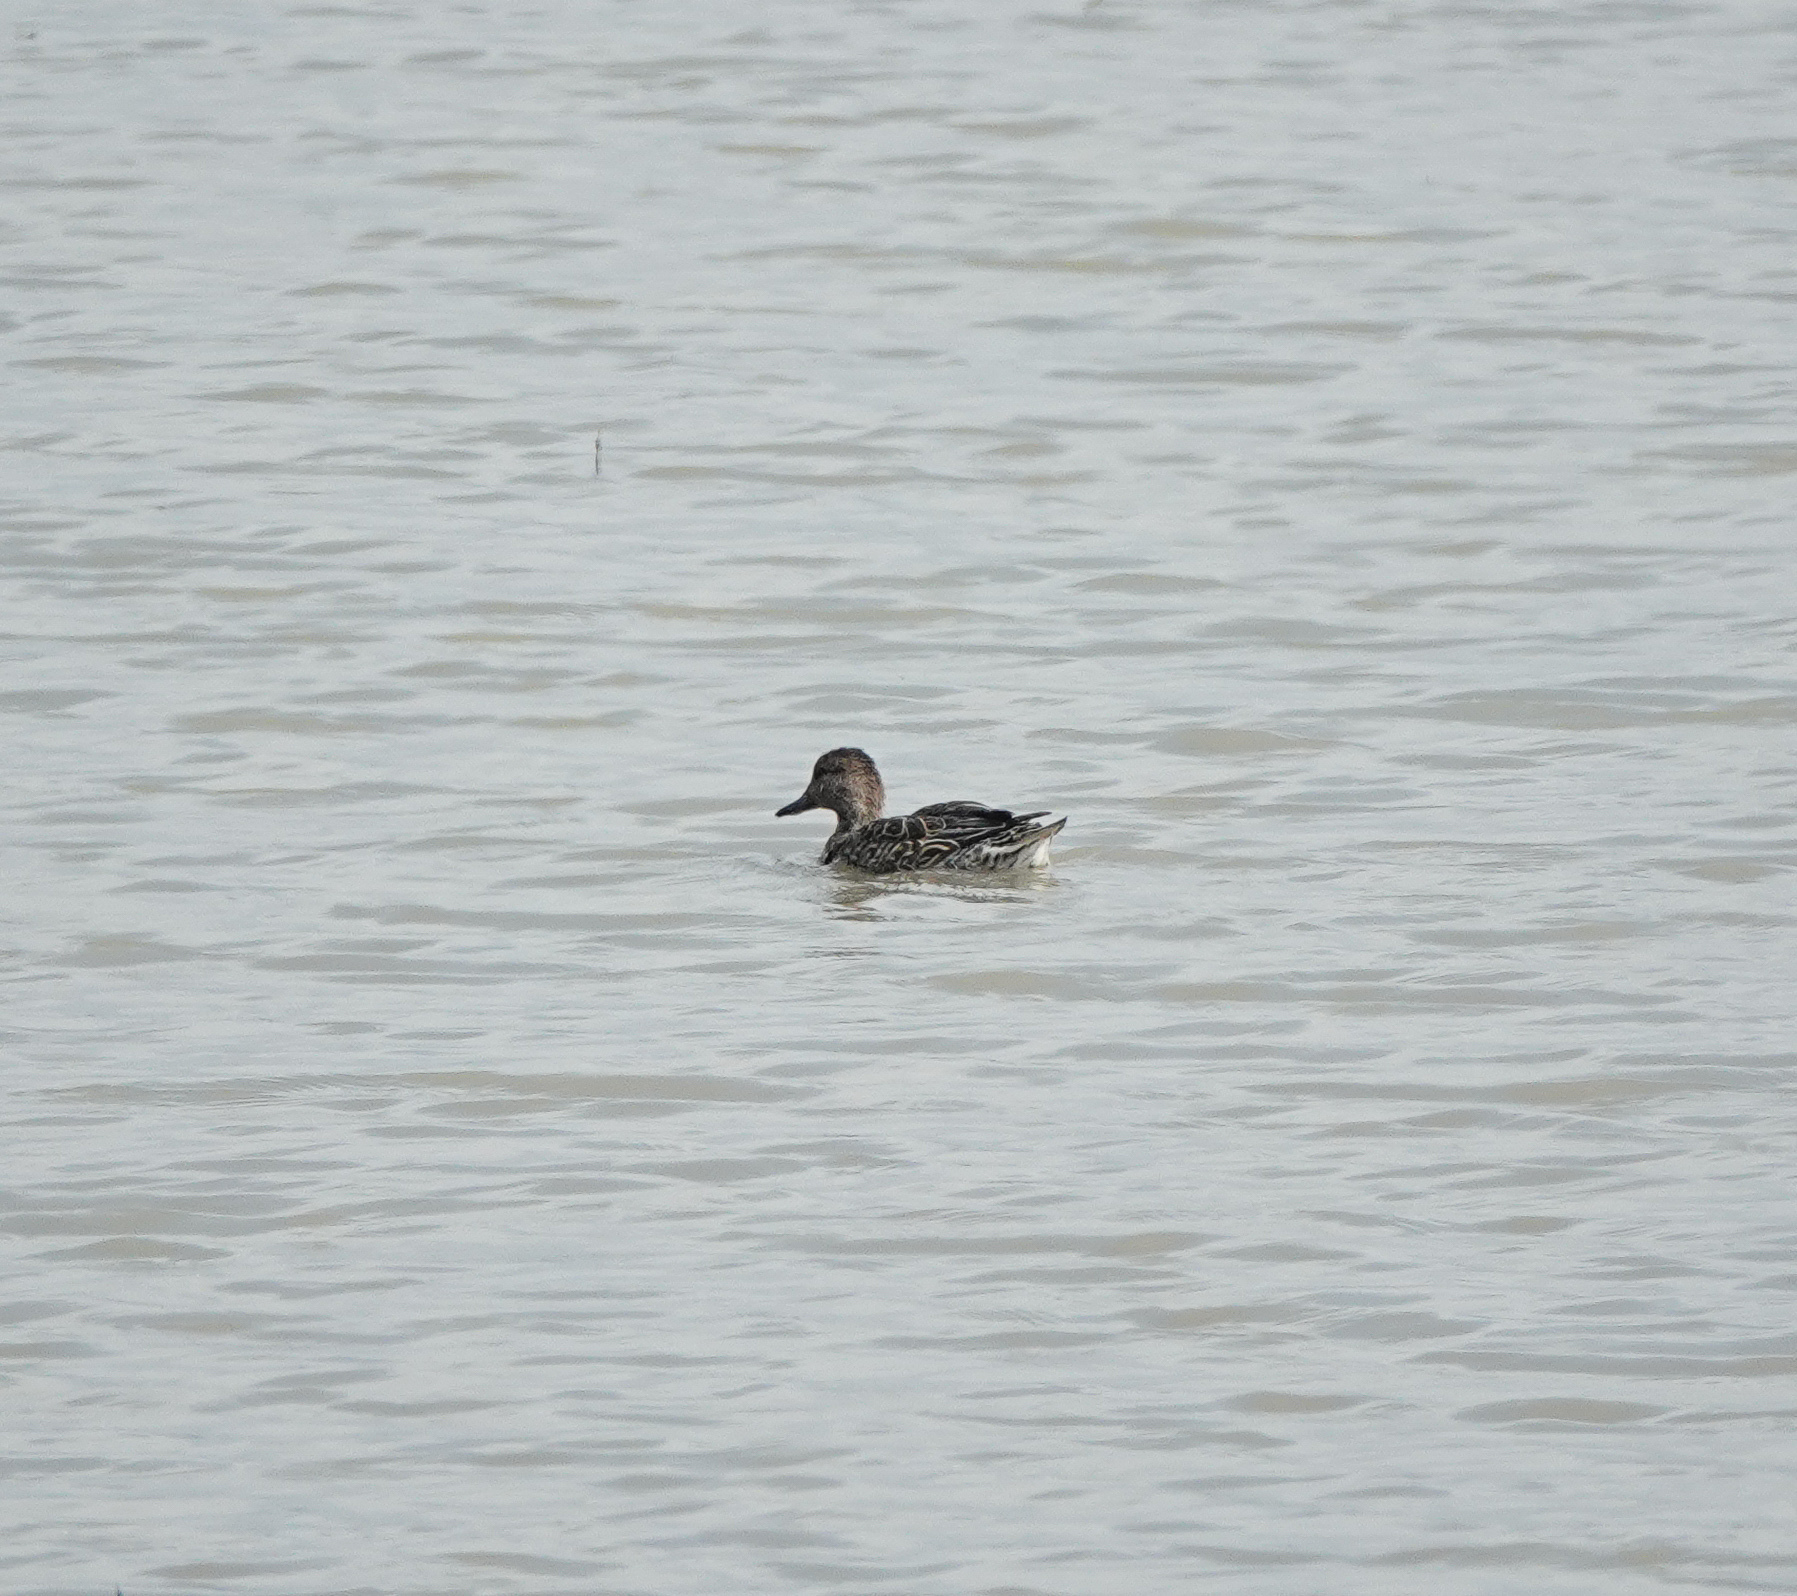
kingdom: Animalia
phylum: Chordata
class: Aves
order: Anseriformes
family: Anatidae
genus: Anas
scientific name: Anas acuta
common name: Northern pintail
